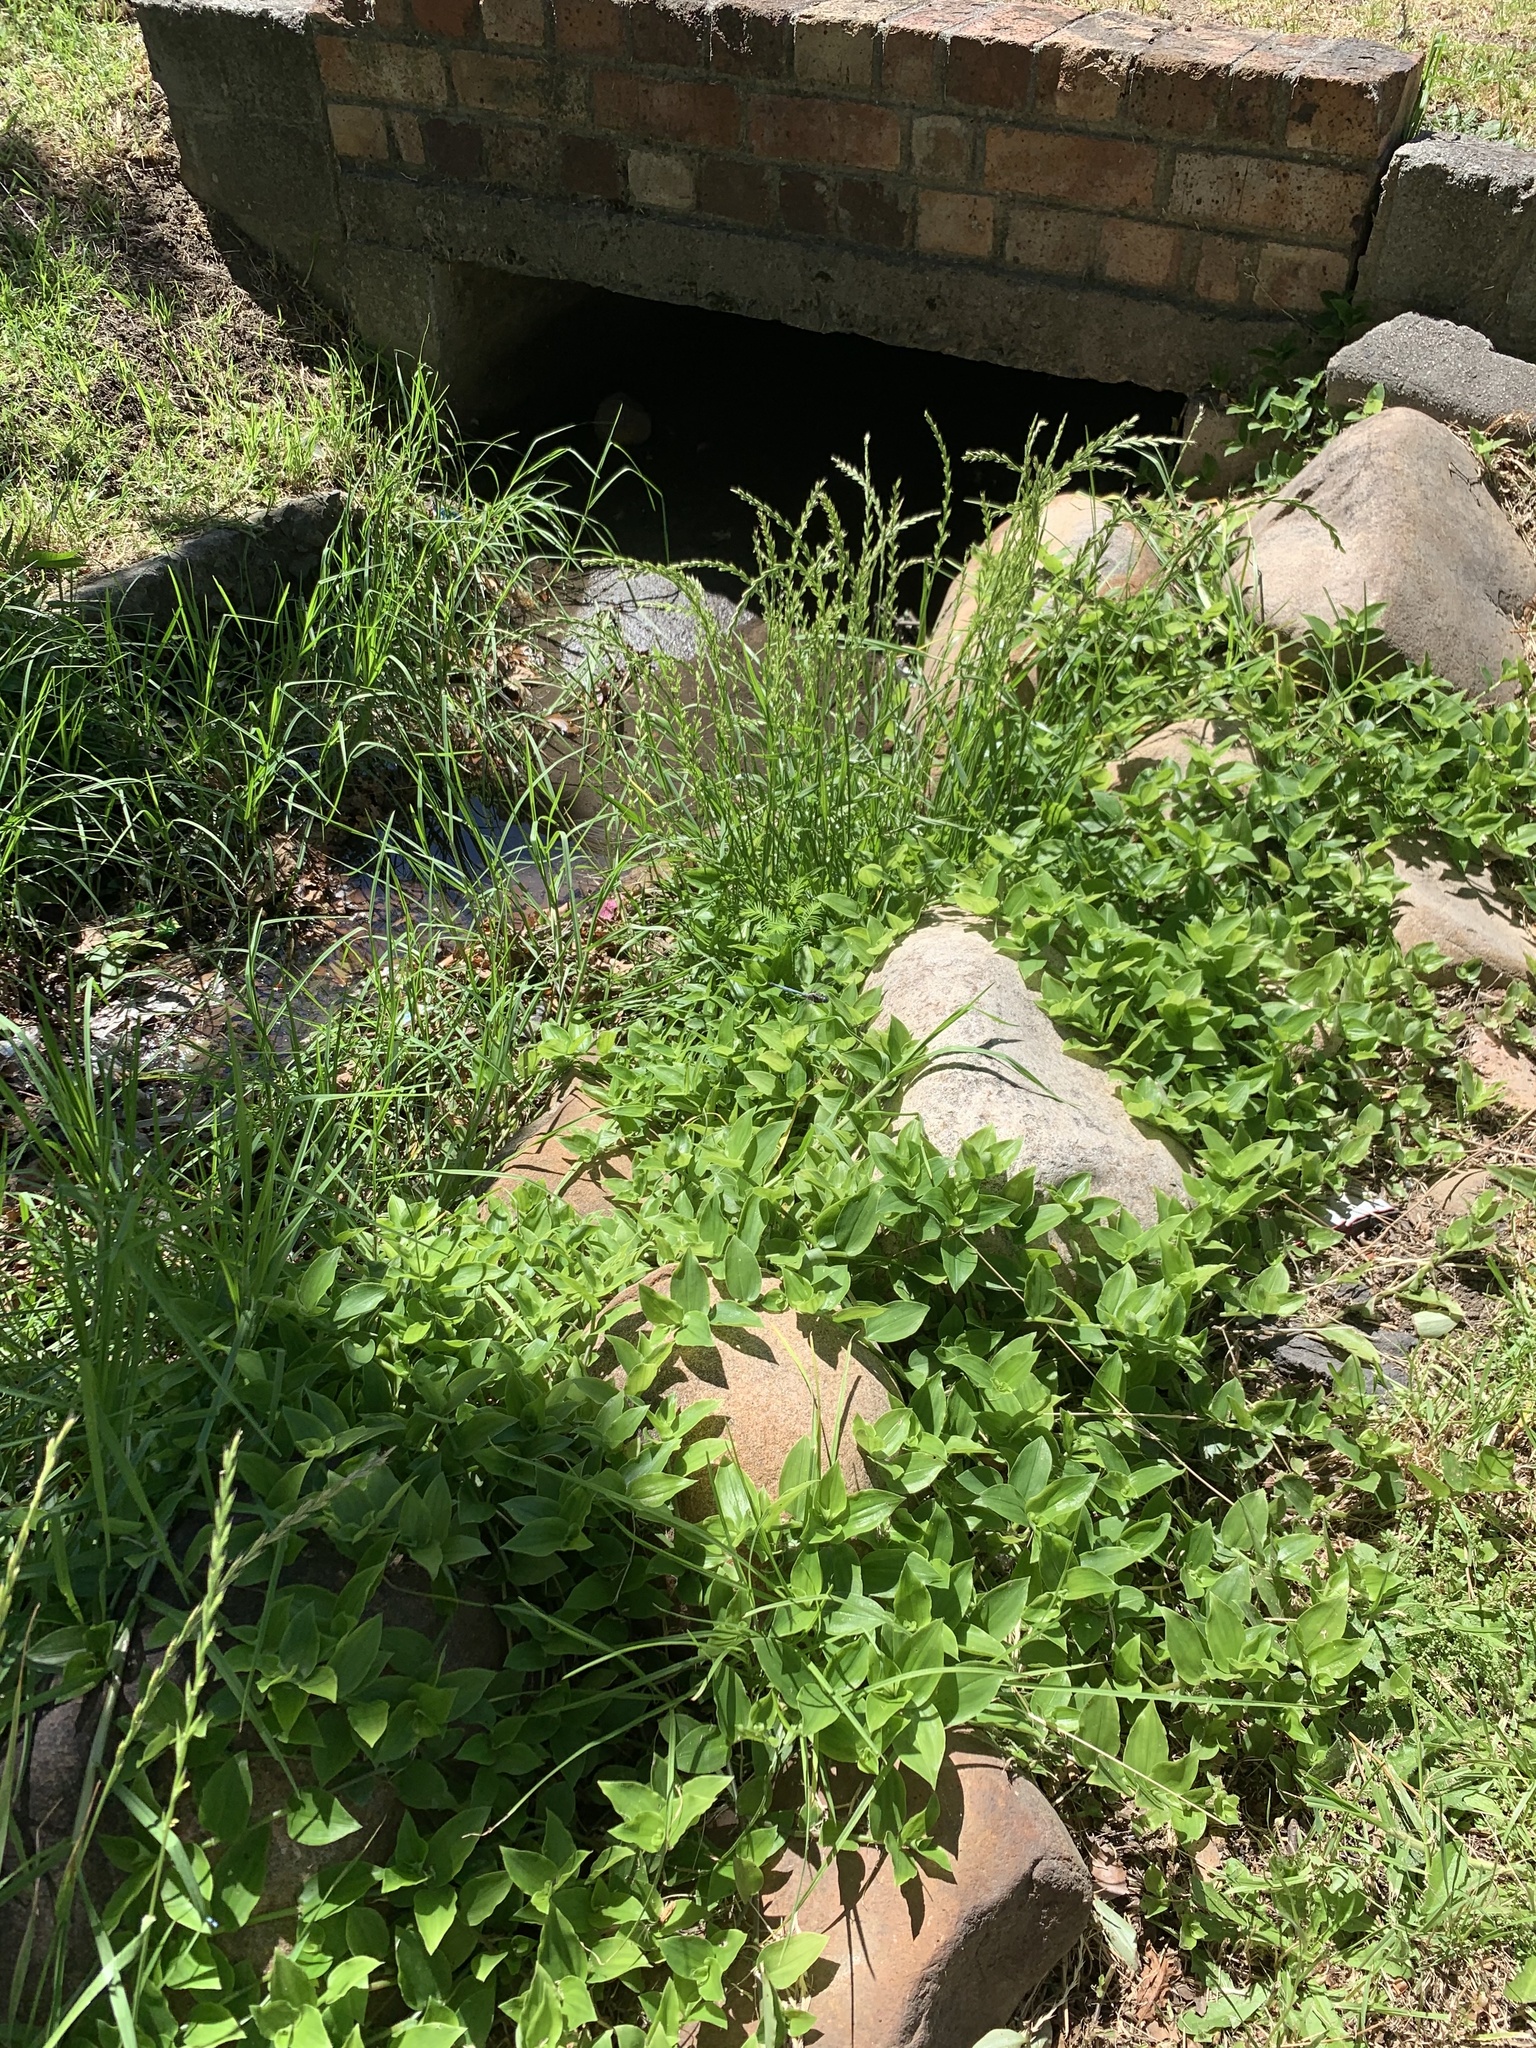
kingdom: Plantae
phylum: Tracheophyta
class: Liliopsida
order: Commelinales
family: Commelinaceae
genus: Tradescantia
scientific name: Tradescantia fluminensis
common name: Wandering-jew
